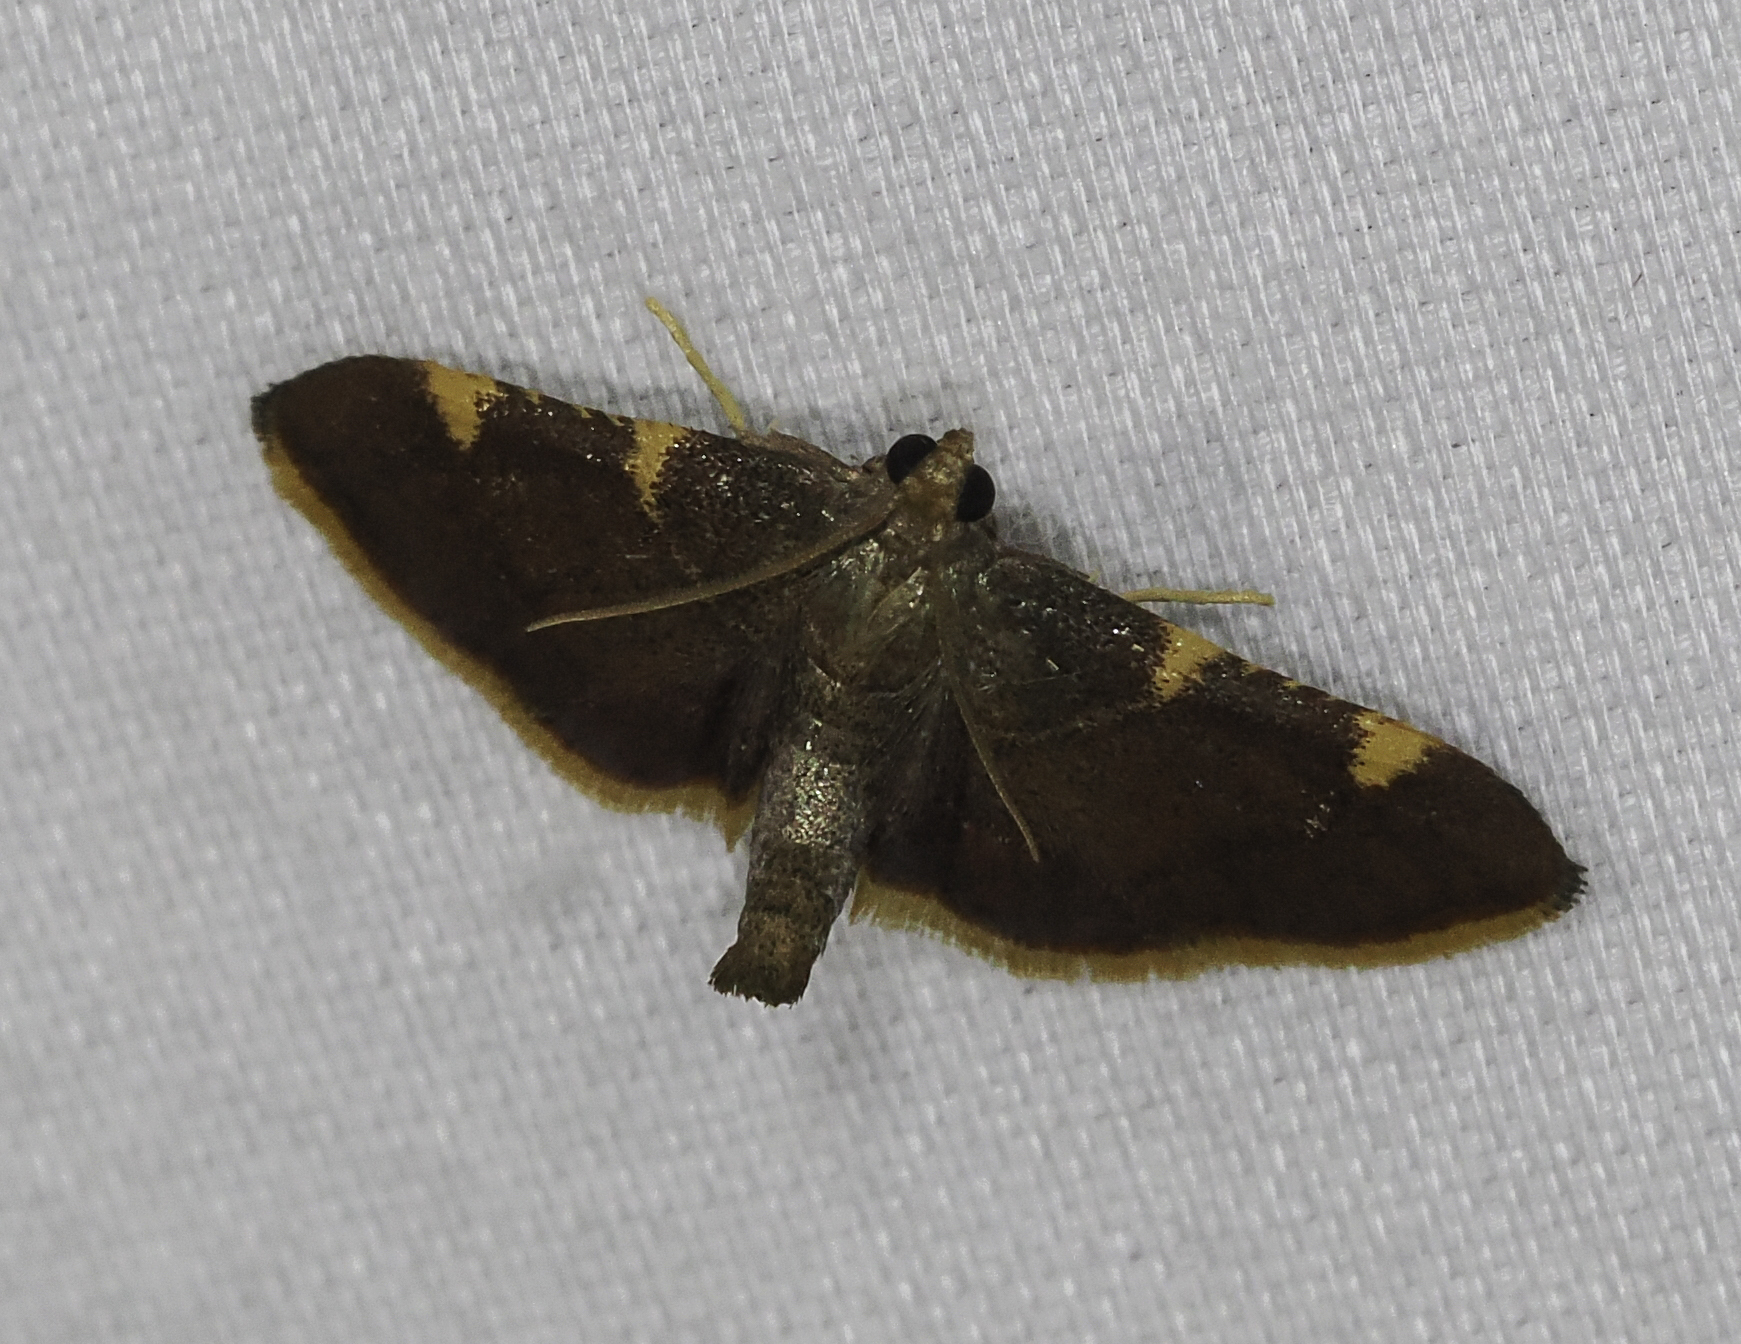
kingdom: Animalia
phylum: Arthropoda
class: Insecta
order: Lepidoptera
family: Pyralidae
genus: Hypsopygia
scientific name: Hypsopygia olinalis
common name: Yellow-fringed dolichomia moth
